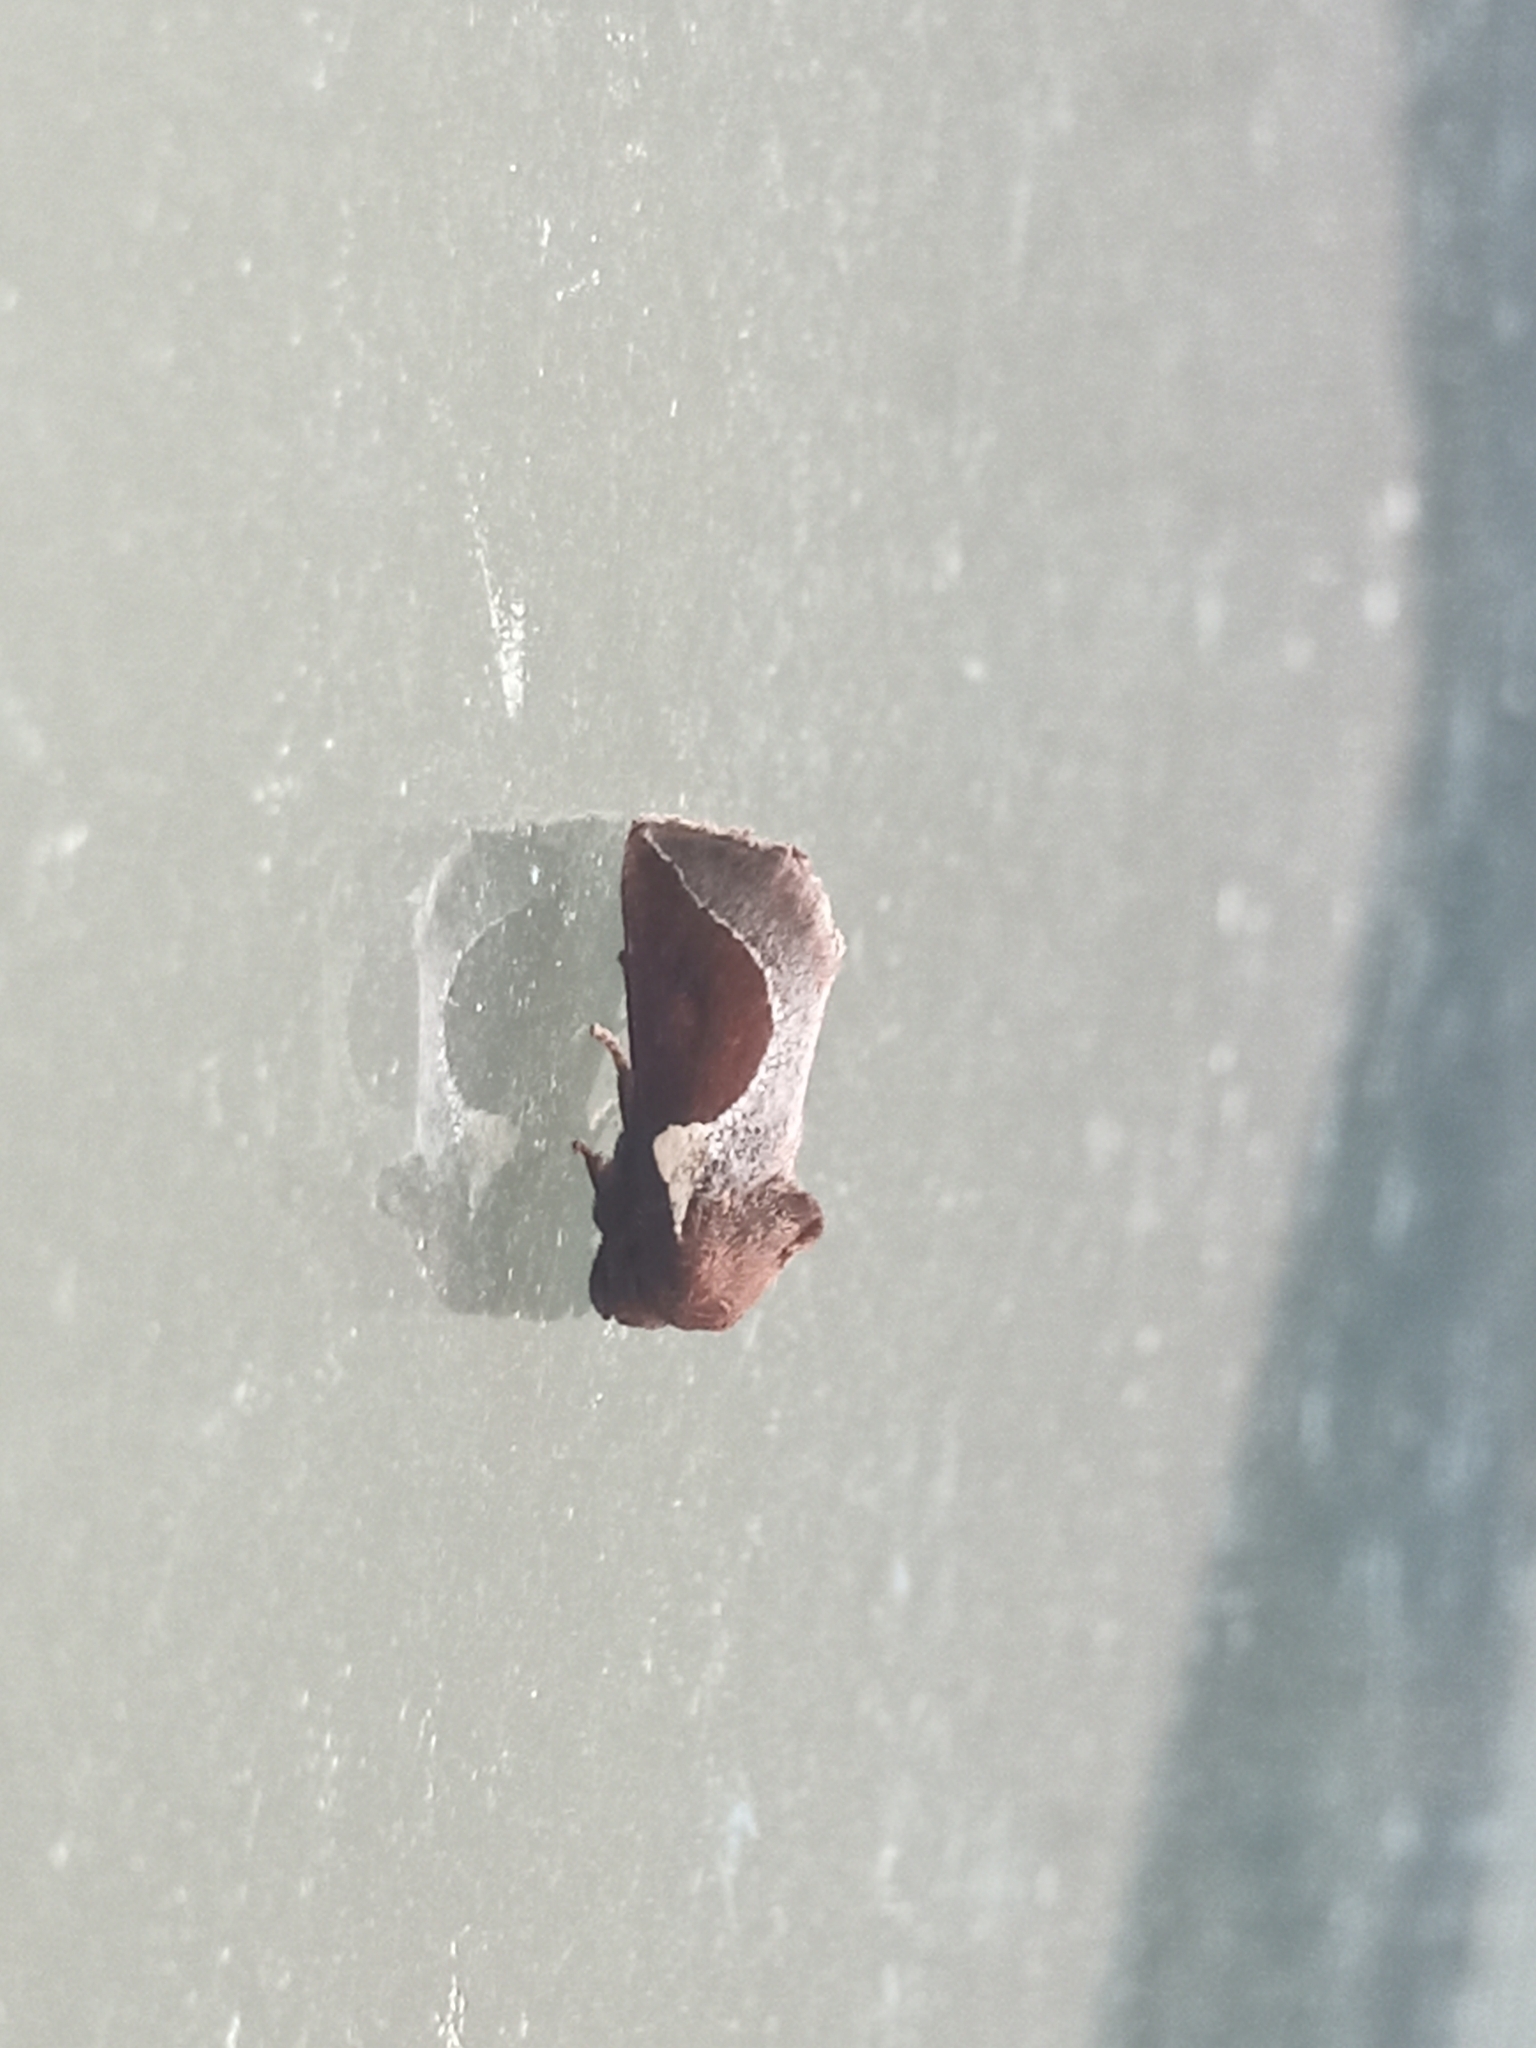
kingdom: Animalia
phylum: Arthropoda
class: Insecta
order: Lepidoptera
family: Limacodidae
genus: Prolimacodes
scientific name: Prolimacodes badia
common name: Skiff moth
